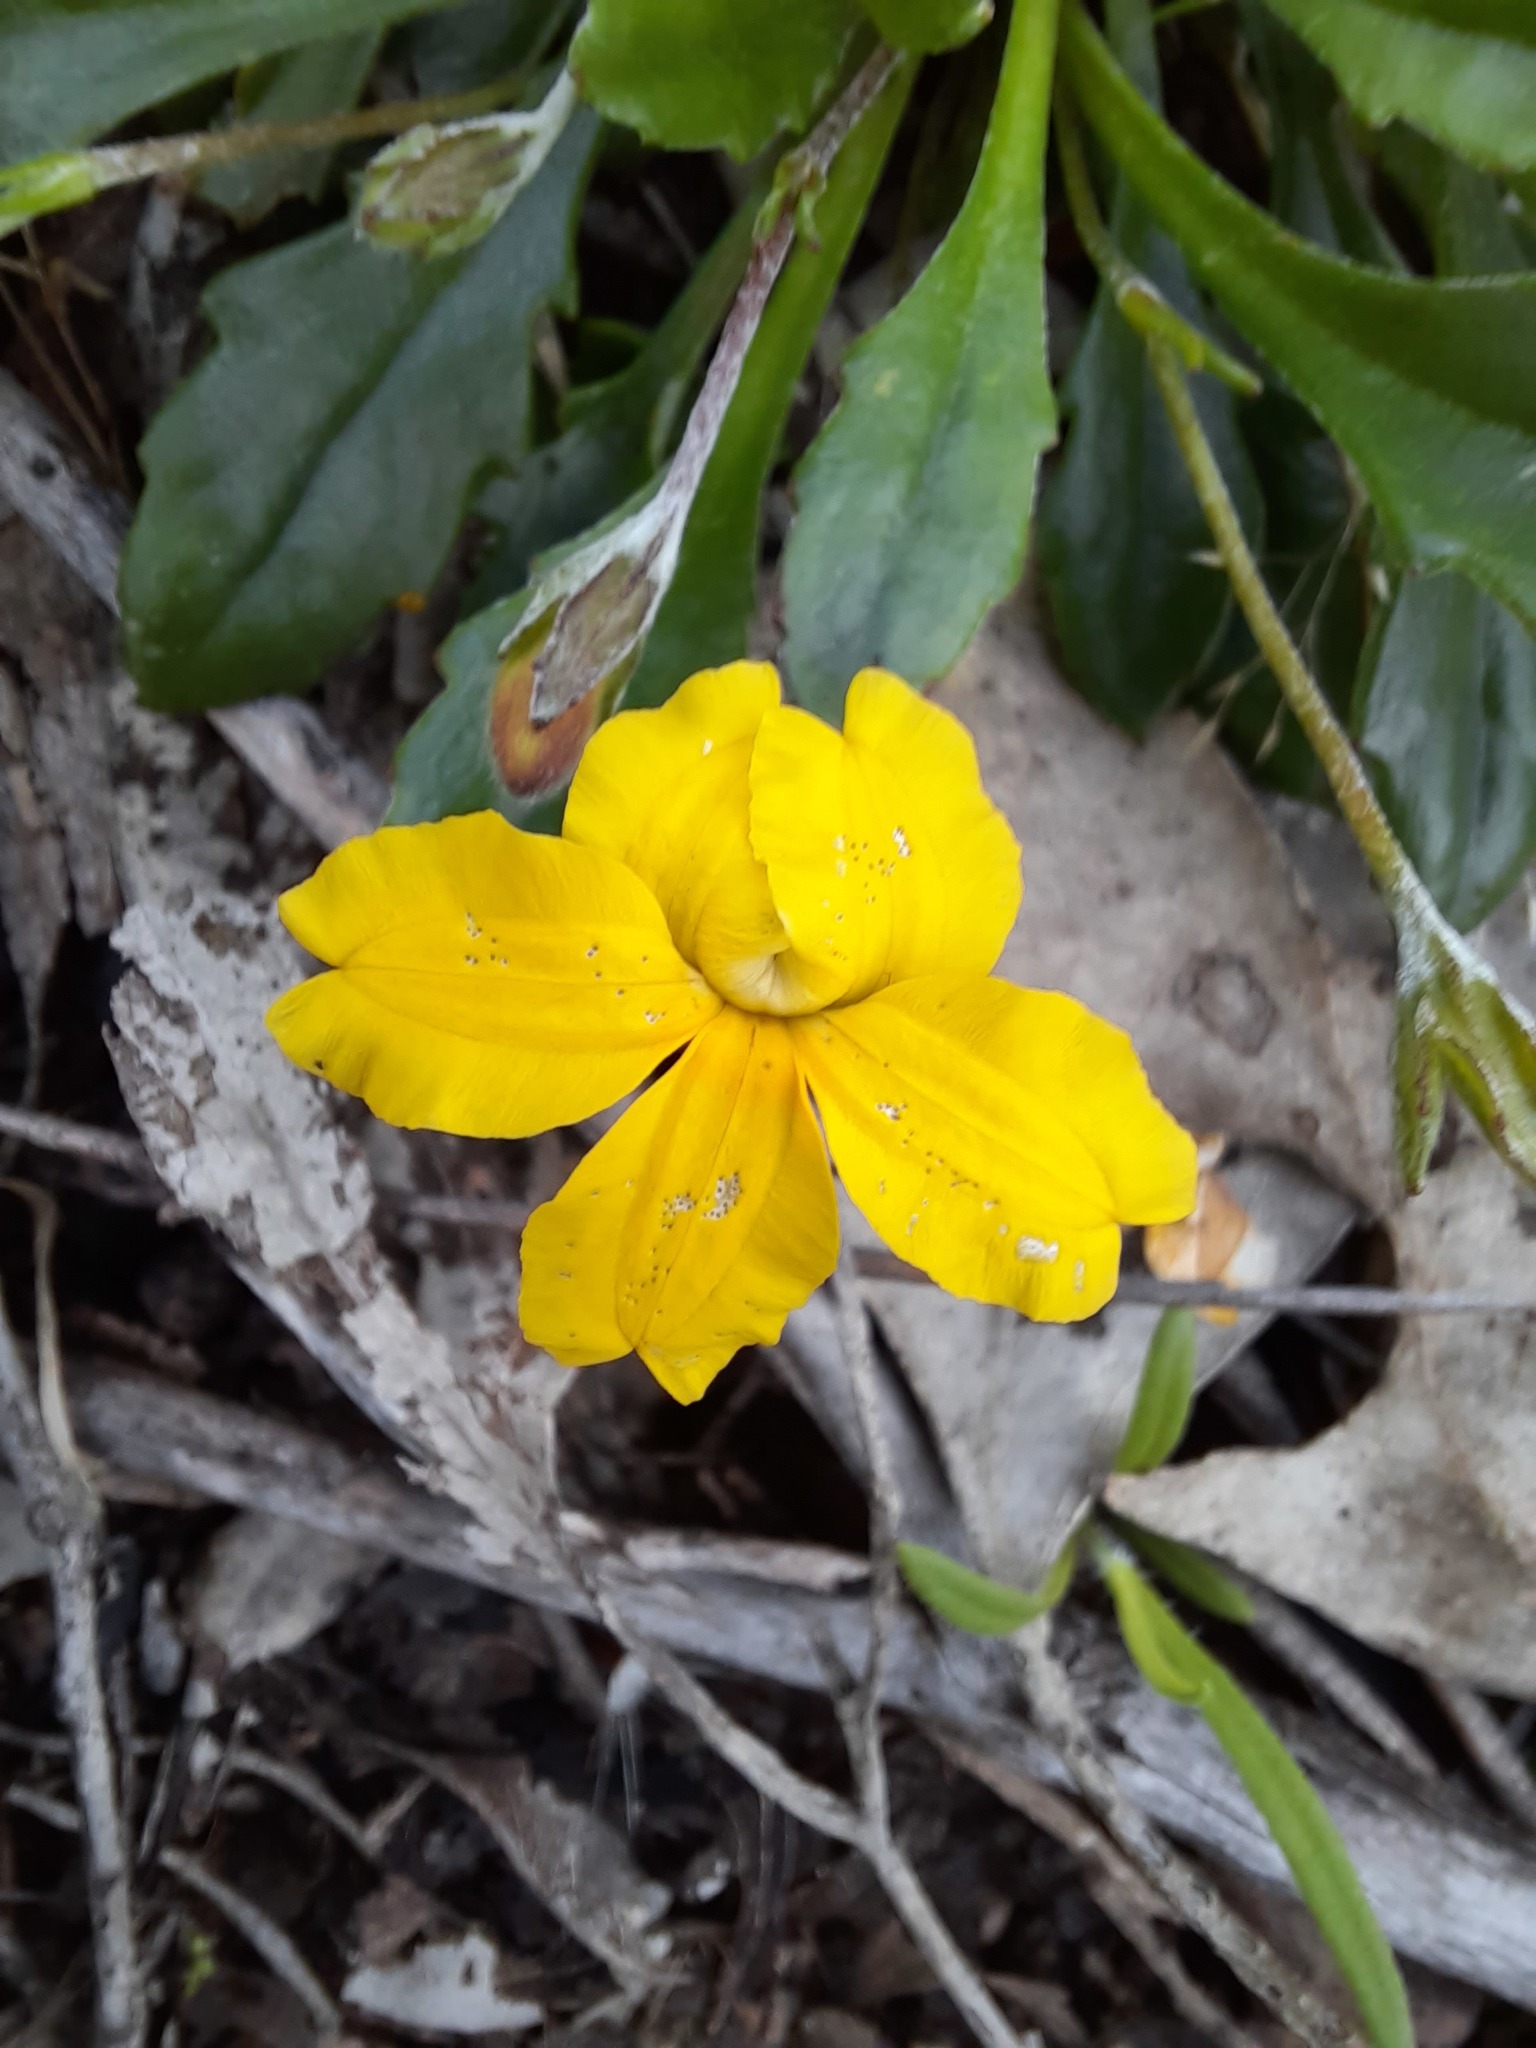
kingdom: Plantae
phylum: Tracheophyta
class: Magnoliopsida
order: Asterales
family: Goodeniaceae
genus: Goodenia
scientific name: Goodenia blackiana
